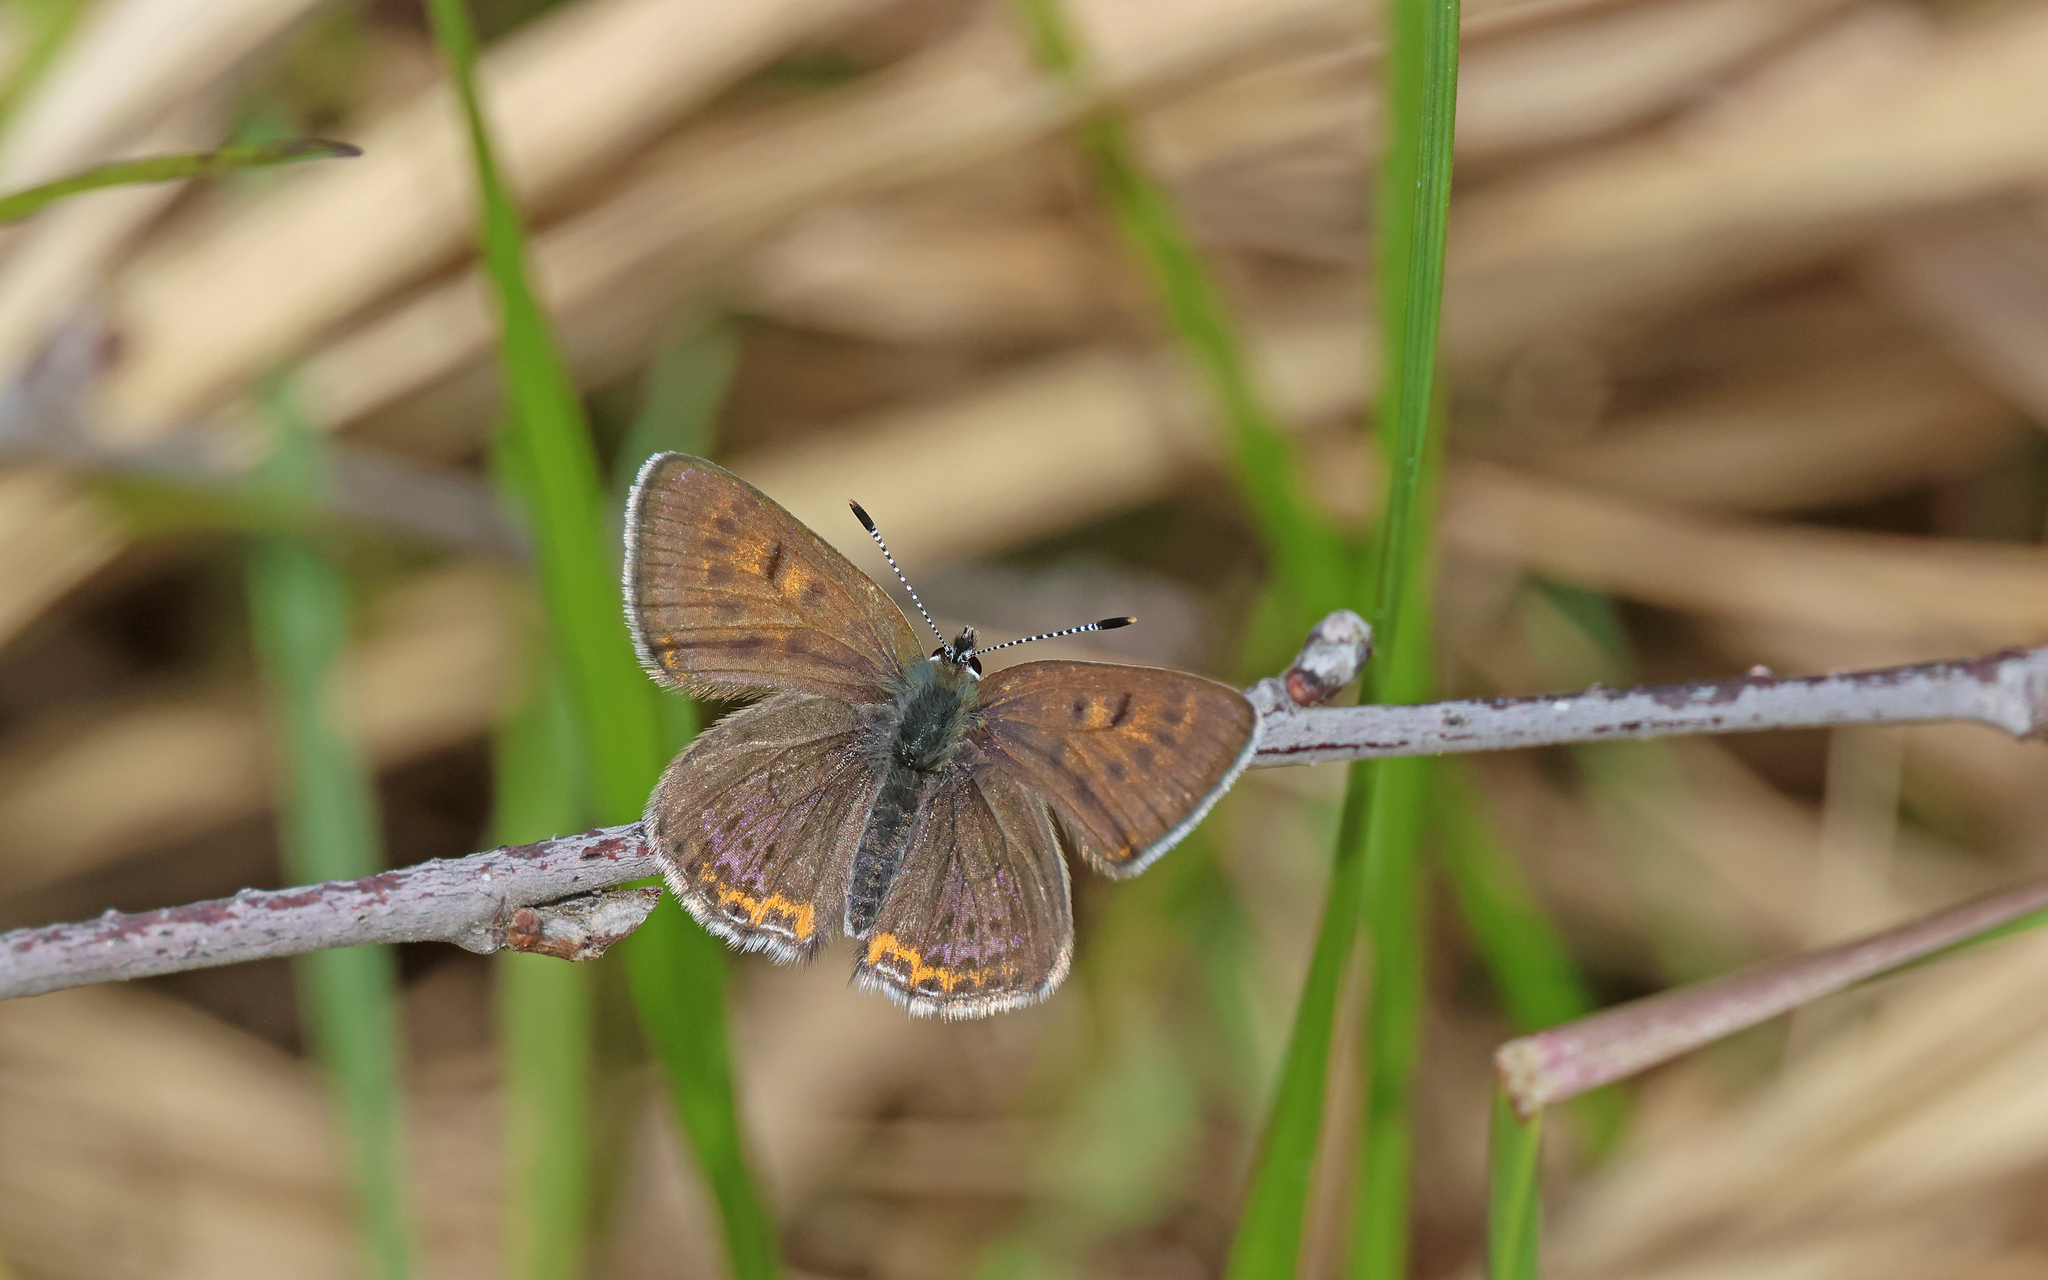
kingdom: Animalia
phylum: Arthropoda
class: Insecta
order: Lepidoptera
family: Lycaenidae
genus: Helleia
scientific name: Helleia helle
